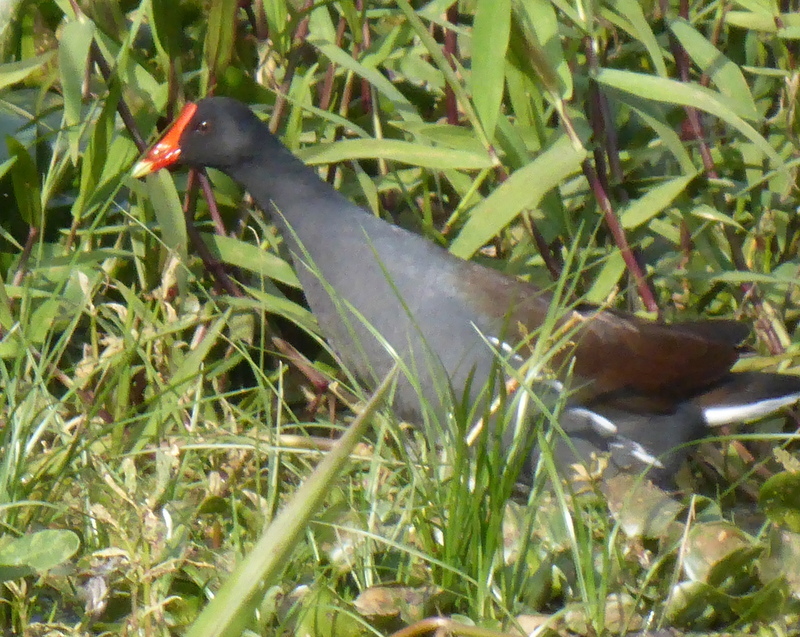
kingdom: Animalia
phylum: Chordata
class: Aves
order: Gruiformes
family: Rallidae
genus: Gallinula
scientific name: Gallinula chloropus
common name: Common moorhen
